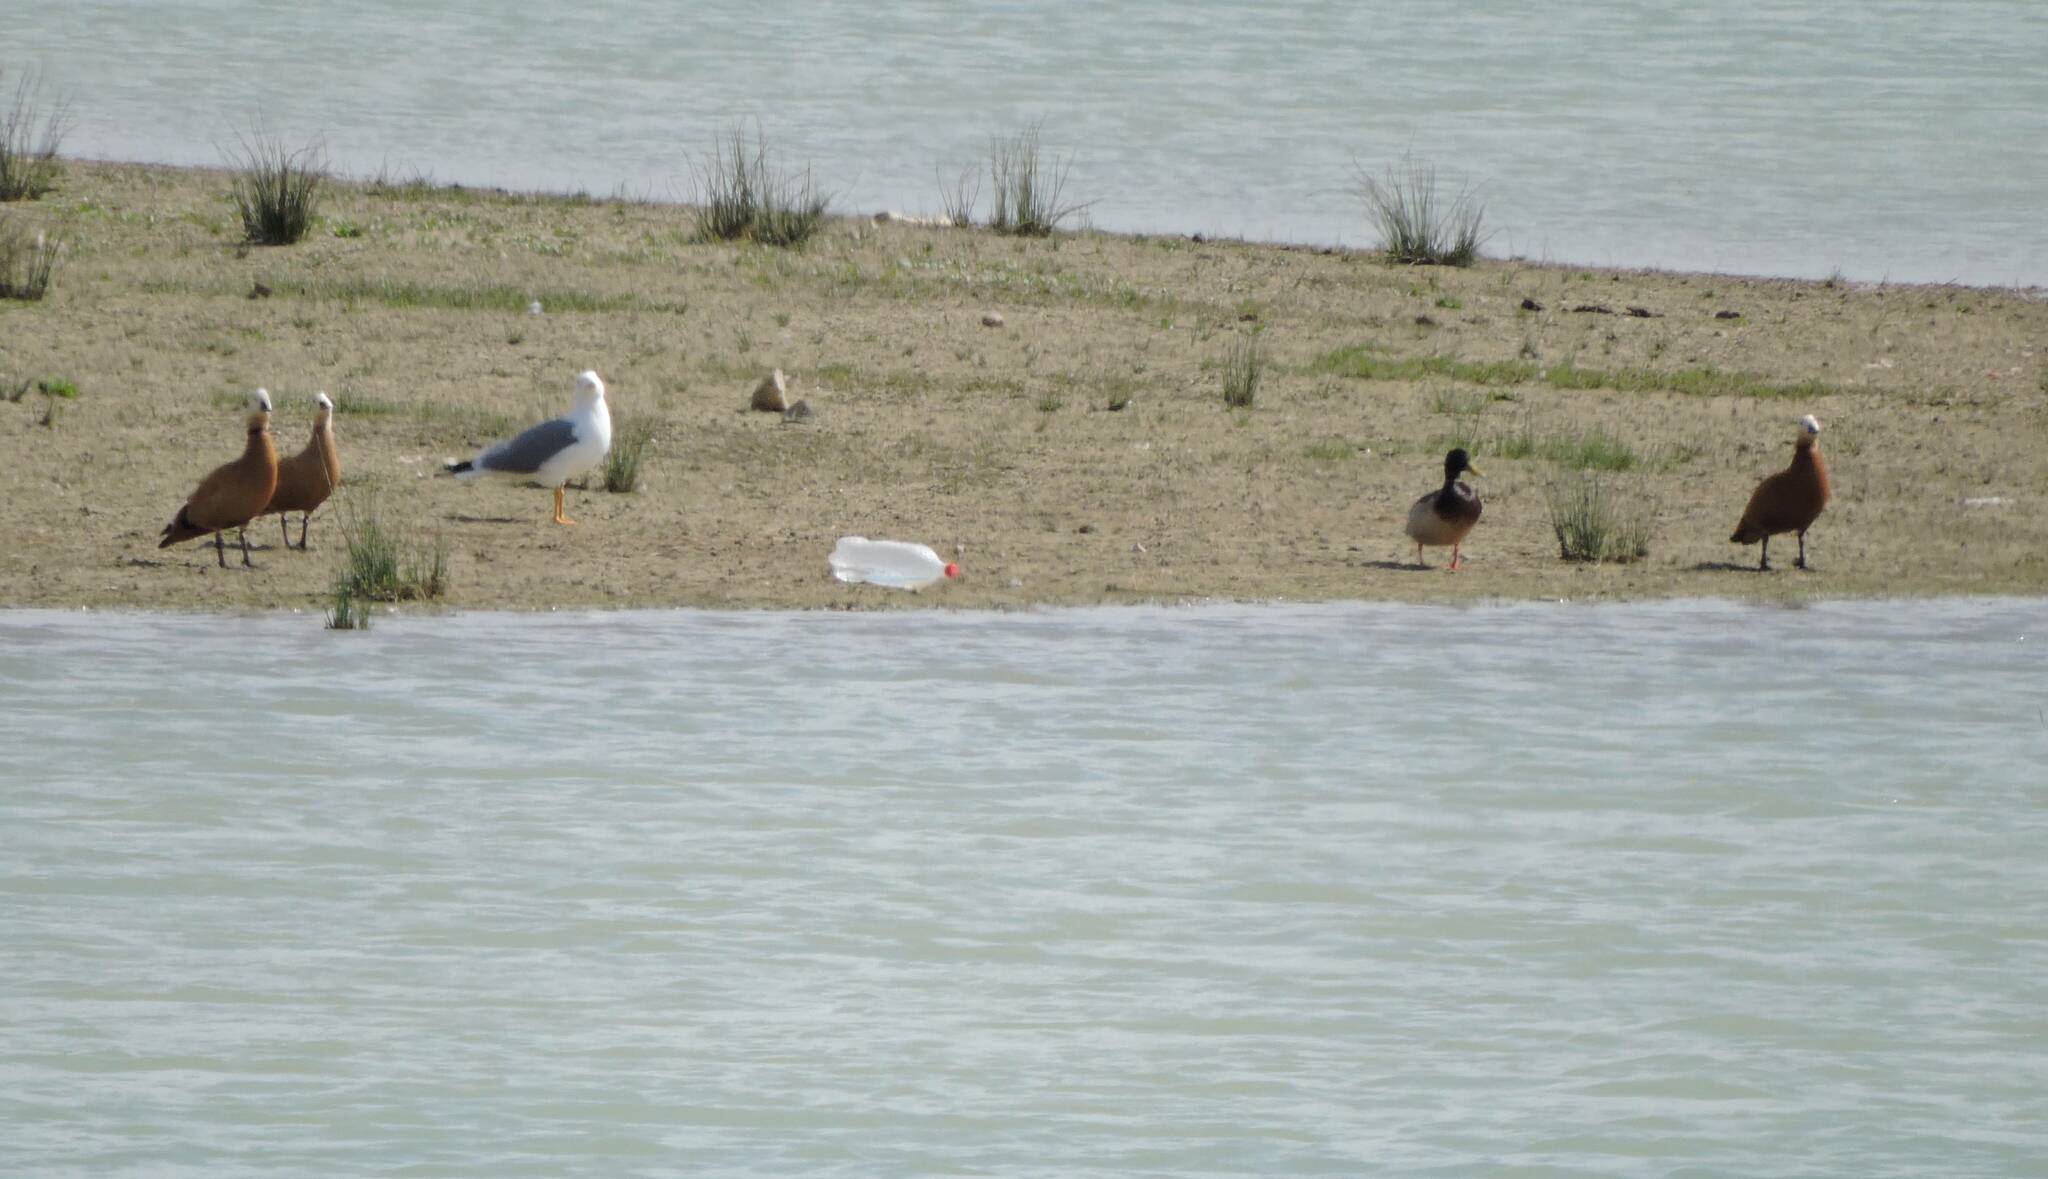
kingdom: Animalia
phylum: Chordata
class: Aves
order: Anseriformes
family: Anatidae
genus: Tadorna
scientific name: Tadorna ferruginea
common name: Ruddy shelduck
